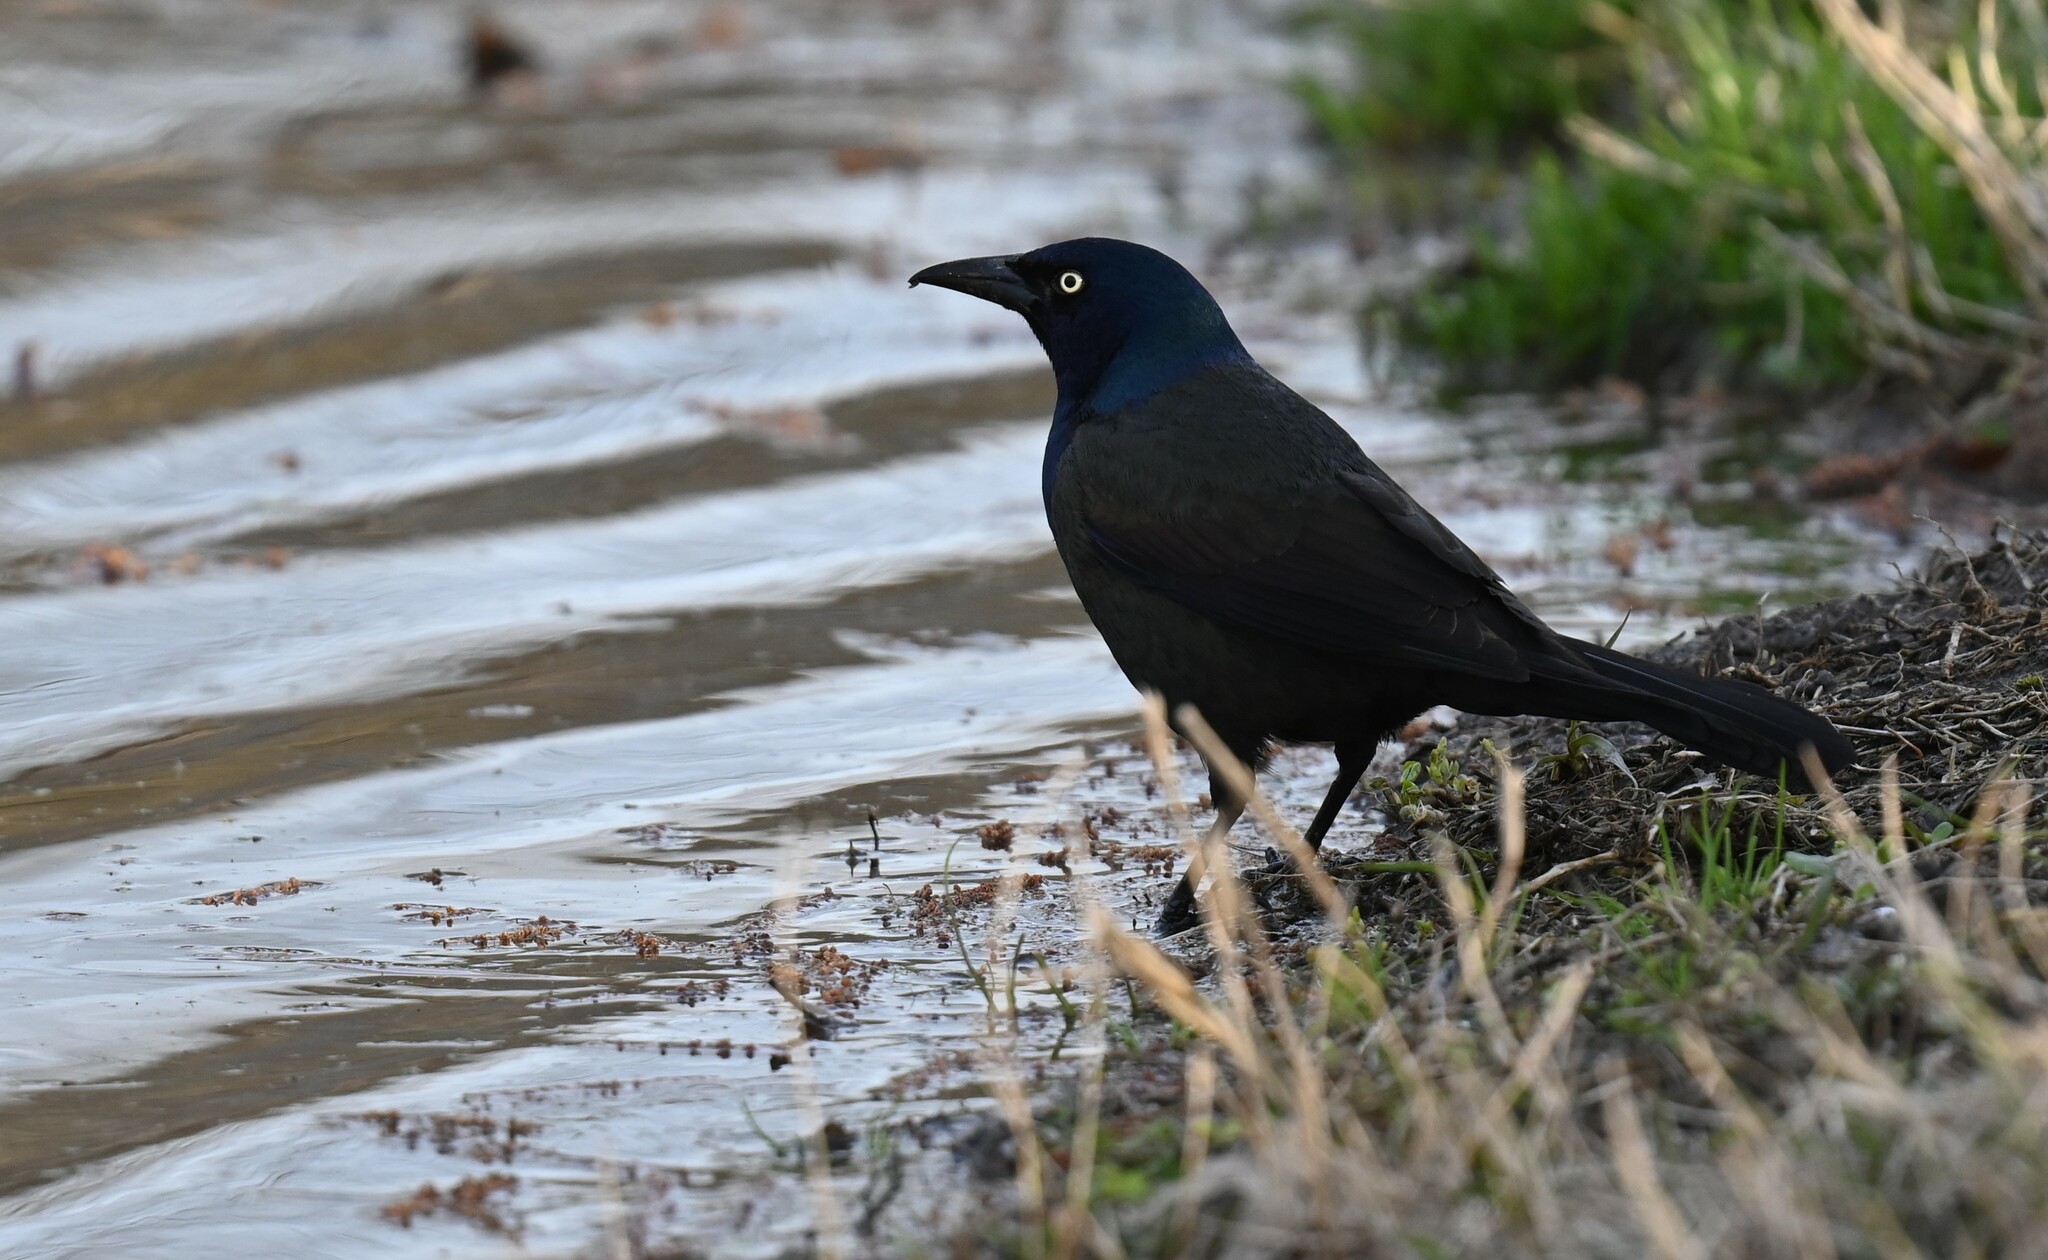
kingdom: Animalia
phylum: Chordata
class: Aves
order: Passeriformes
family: Icteridae
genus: Quiscalus
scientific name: Quiscalus quiscula
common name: Common grackle
